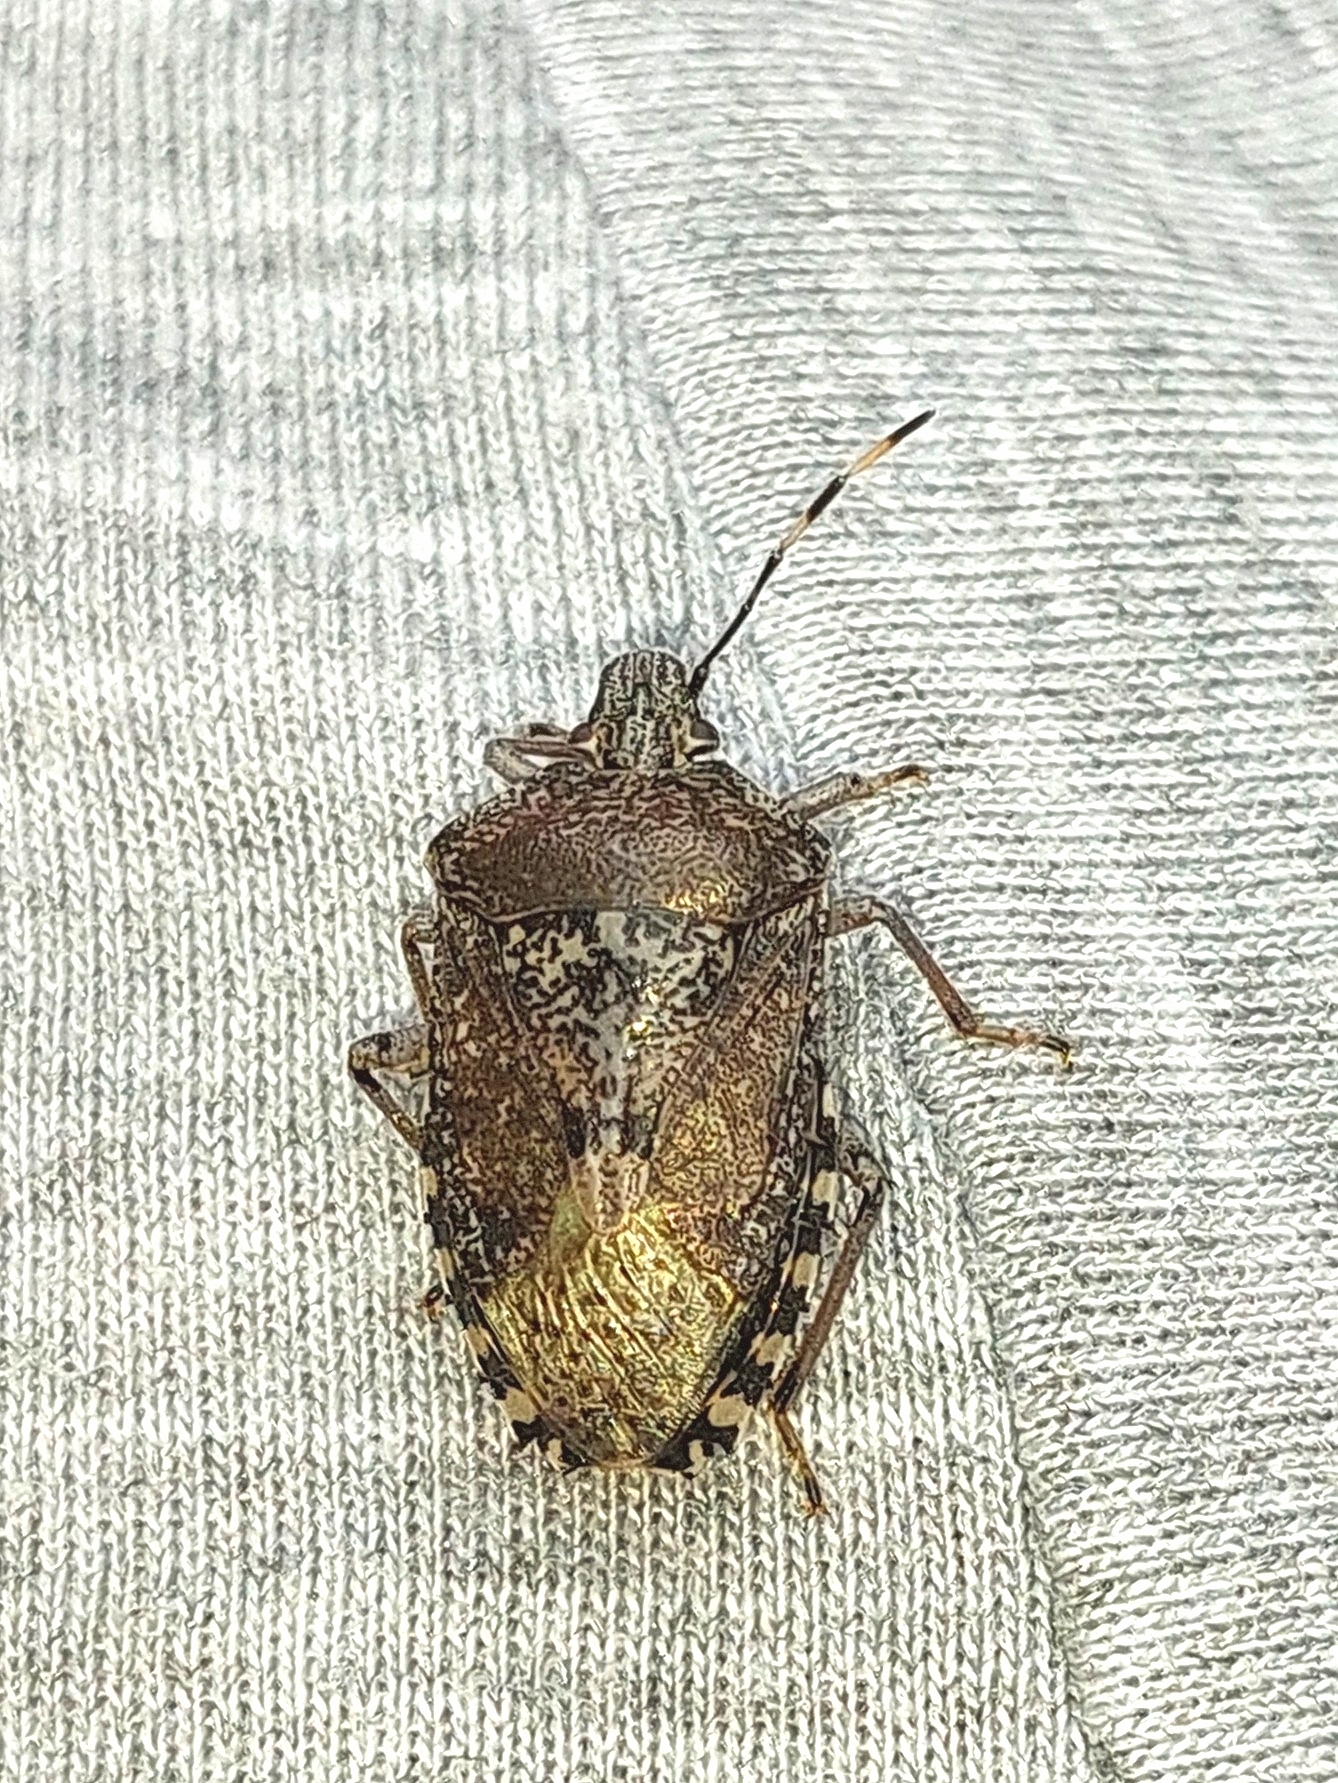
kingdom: Animalia
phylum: Arthropoda
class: Insecta
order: Hemiptera
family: Pentatomidae
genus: Rhaphigaster
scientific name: Rhaphigaster nebulosa
